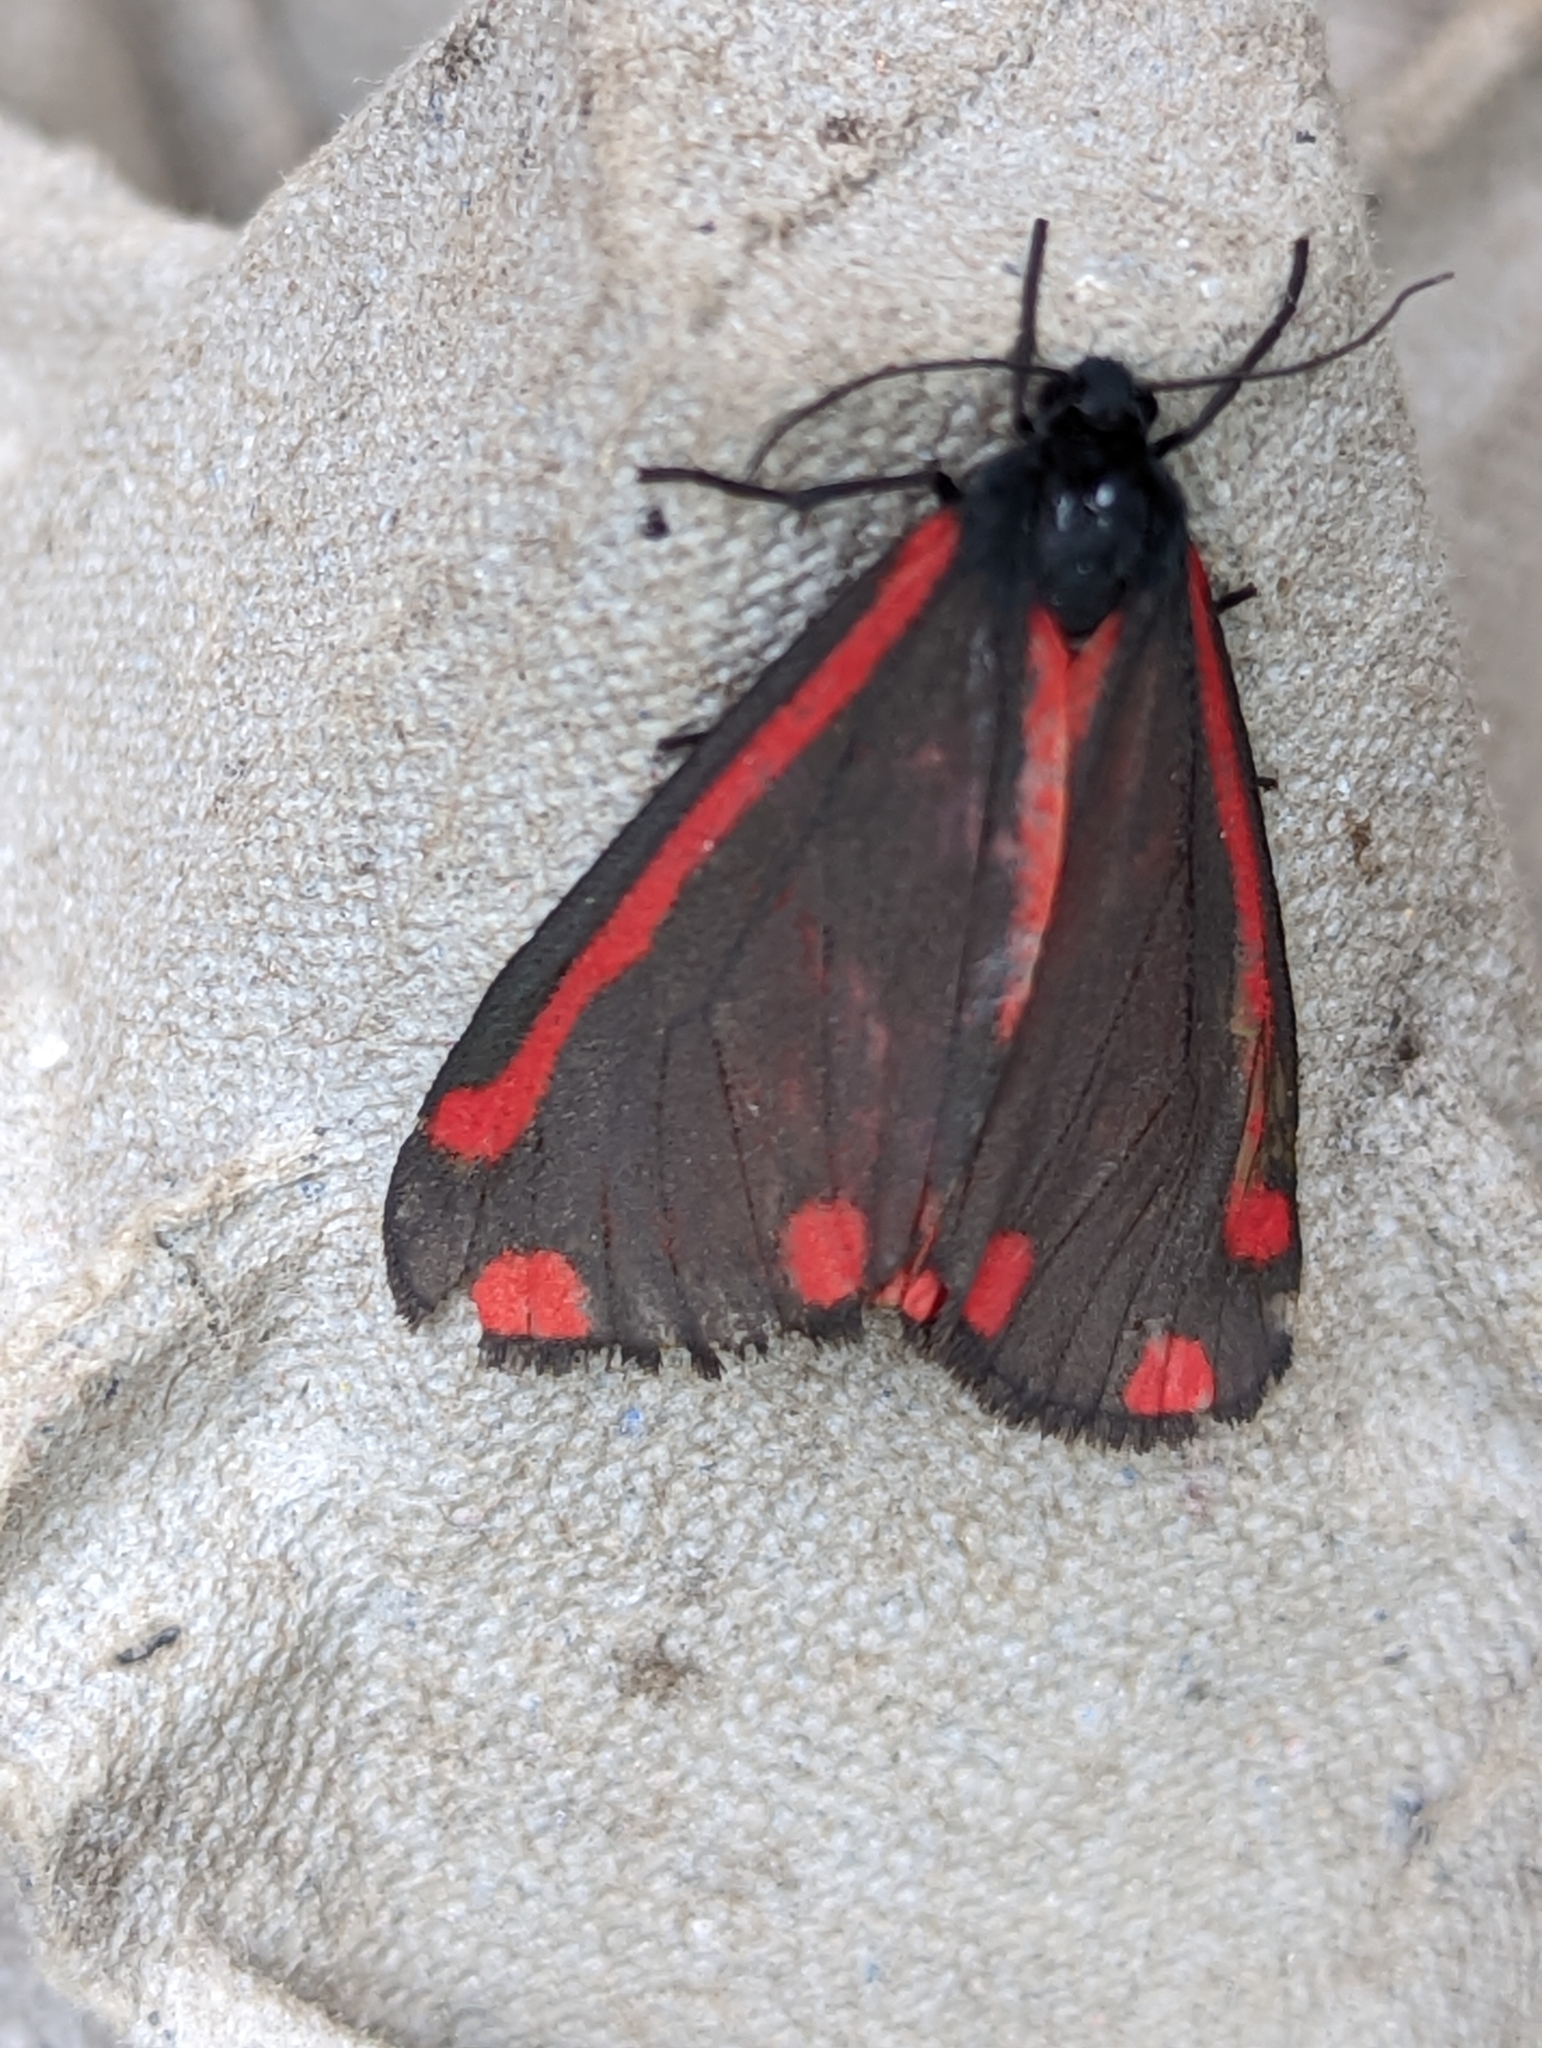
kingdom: Animalia
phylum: Arthropoda
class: Insecta
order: Lepidoptera
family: Erebidae
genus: Tyria
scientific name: Tyria jacobaeae
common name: Cinnabar
